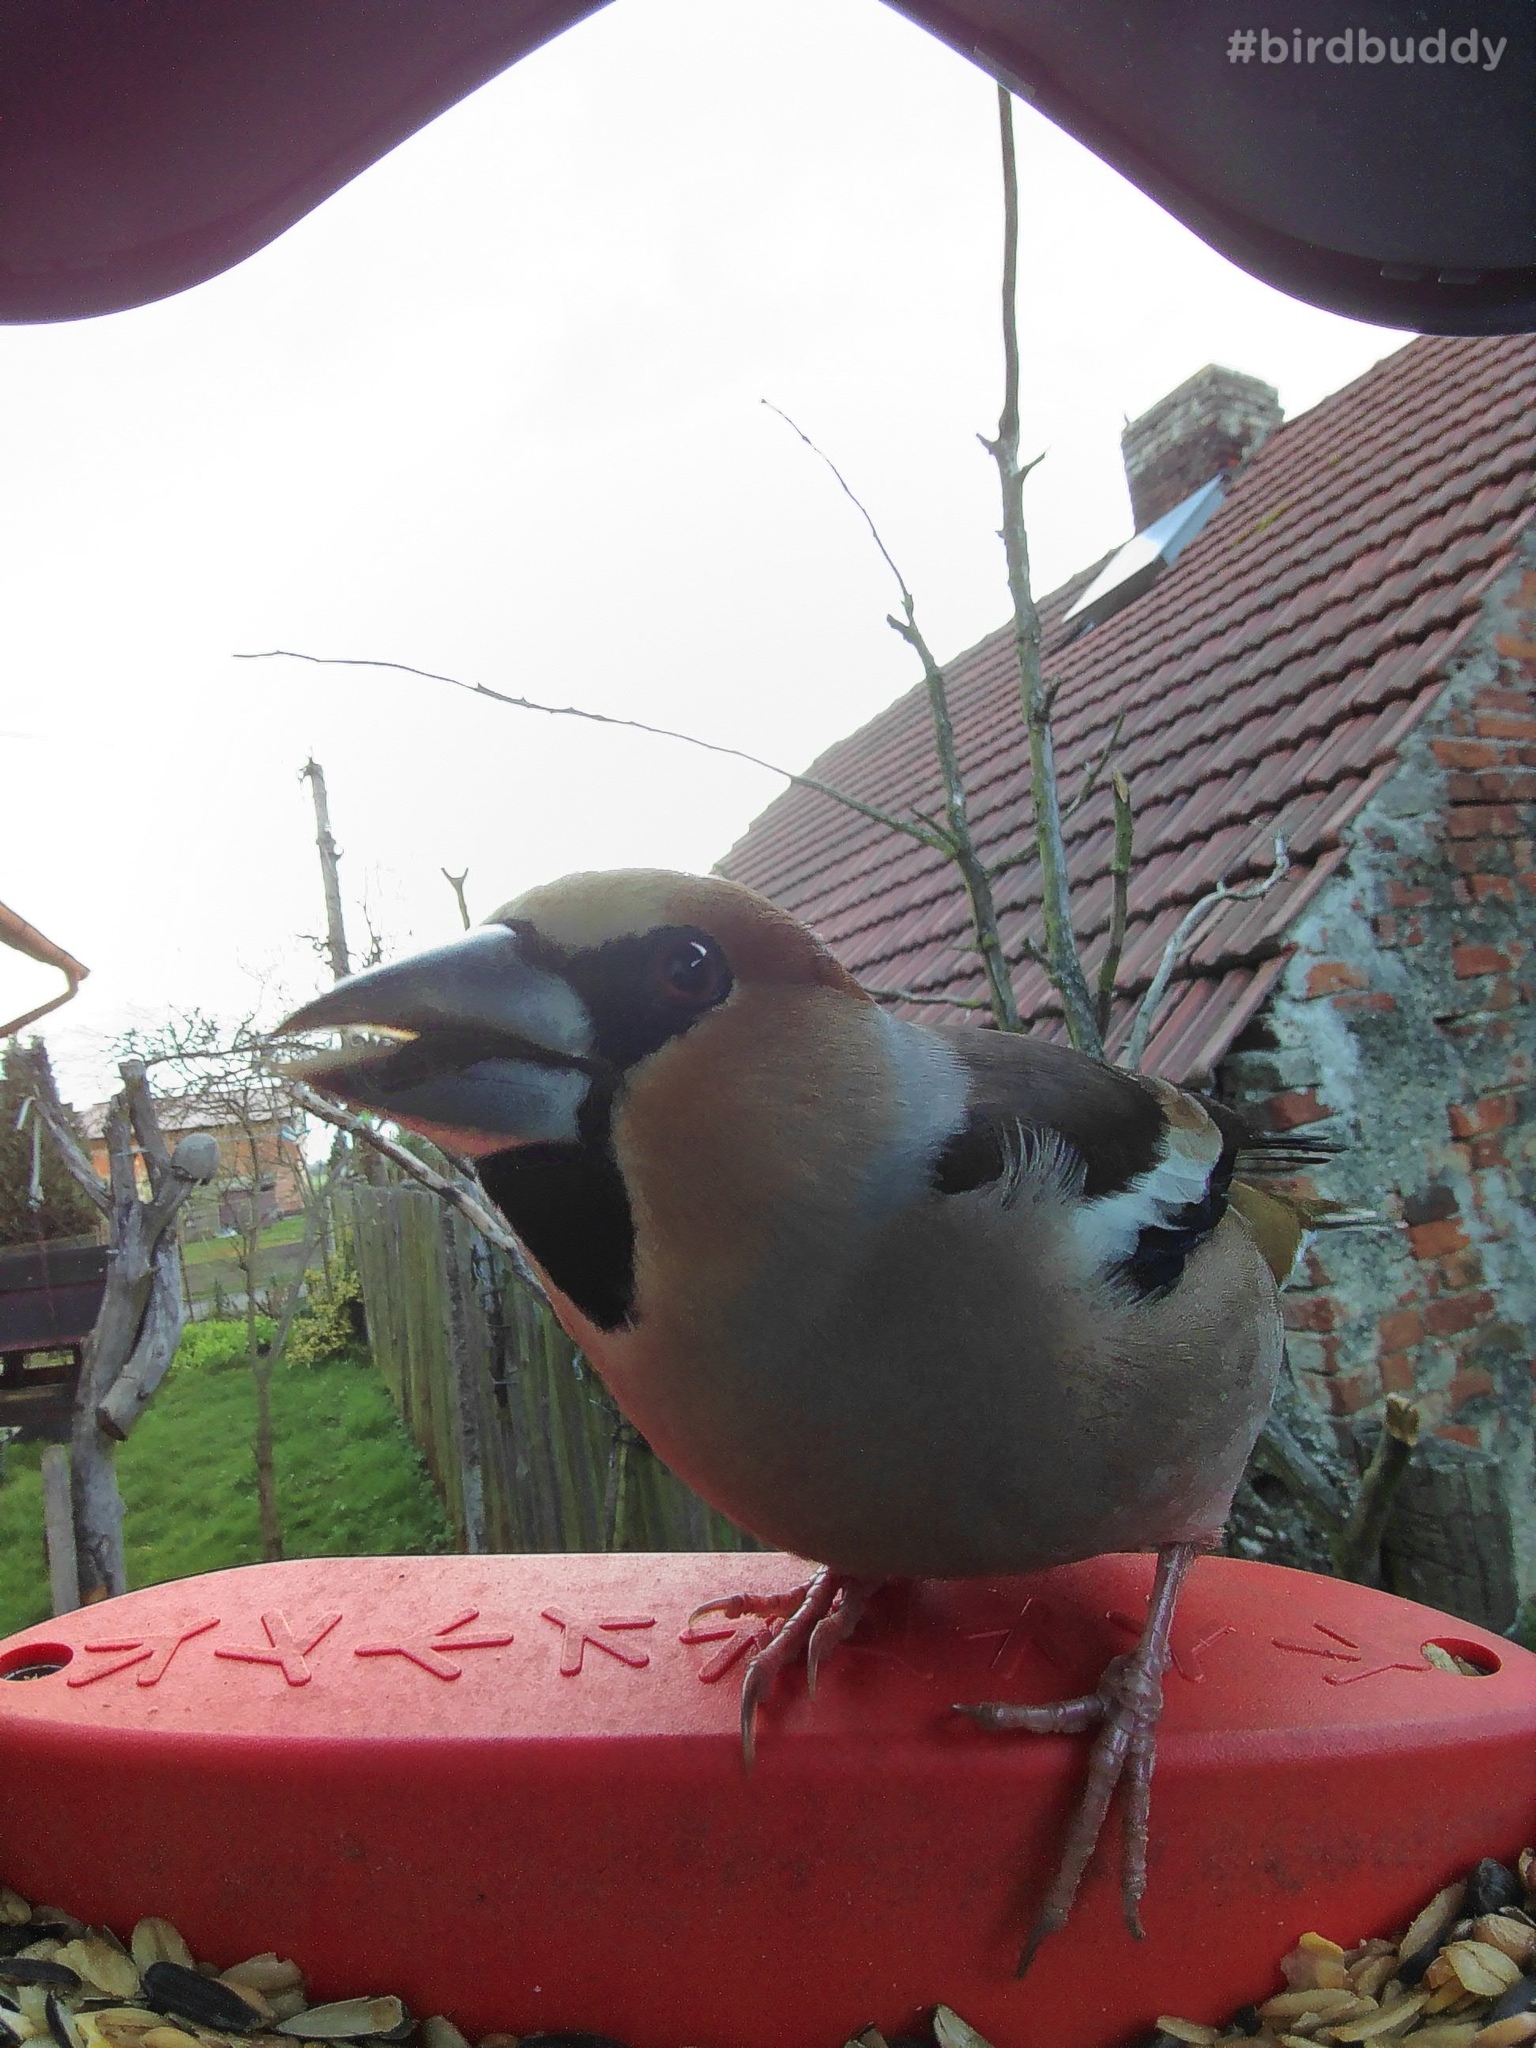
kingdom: Animalia
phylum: Chordata
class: Aves
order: Passeriformes
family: Fringillidae
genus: Coccothraustes
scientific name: Coccothraustes coccothraustes
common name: Hawfinch
